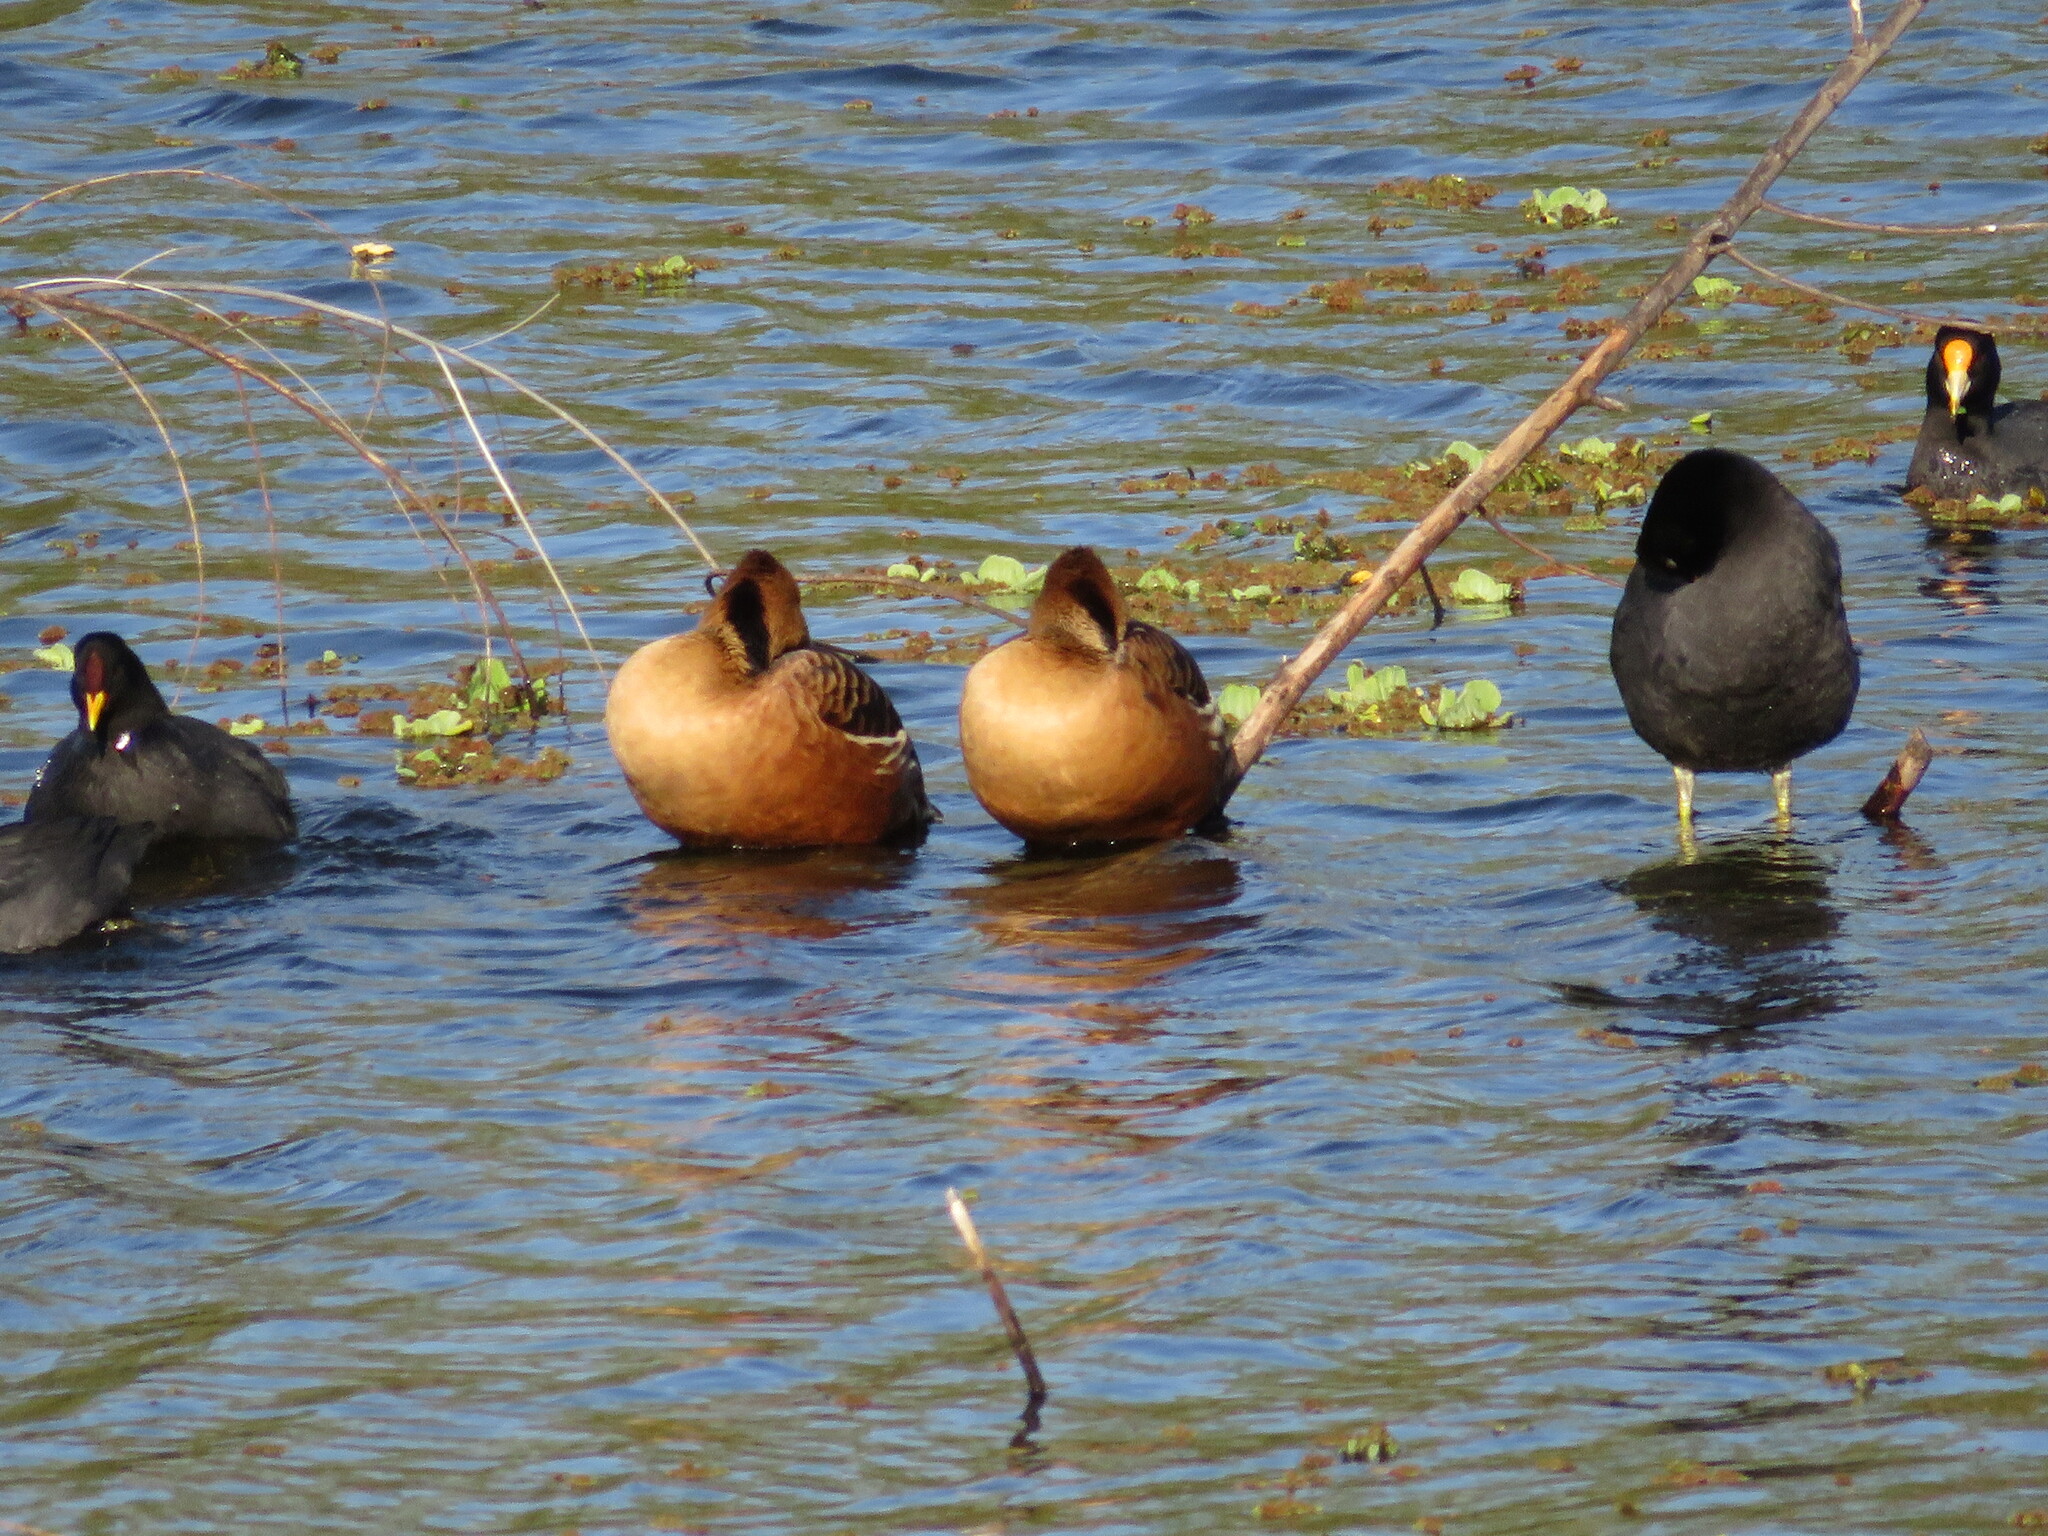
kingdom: Animalia
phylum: Chordata
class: Aves
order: Gruiformes
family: Rallidae
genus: Fulica
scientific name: Fulica leucoptera
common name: White-winged coot
